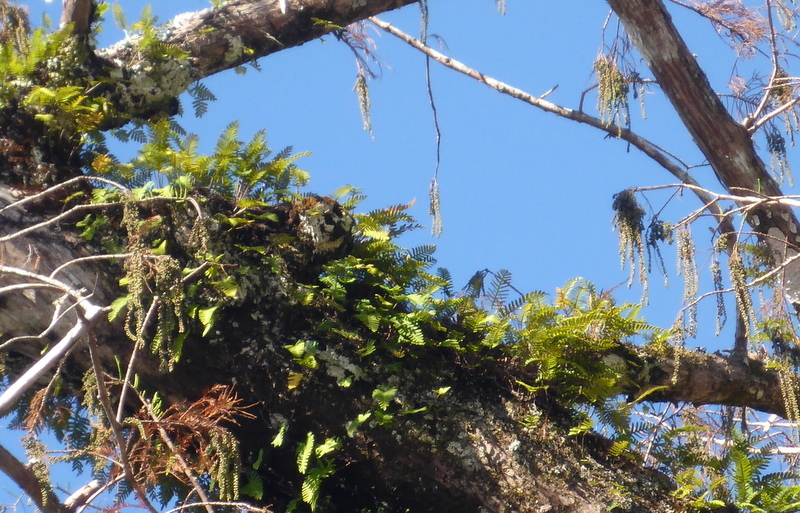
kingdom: Plantae
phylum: Tracheophyta
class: Polypodiopsida
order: Polypodiales
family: Polypodiaceae
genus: Pleopeltis
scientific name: Pleopeltis michauxiana
